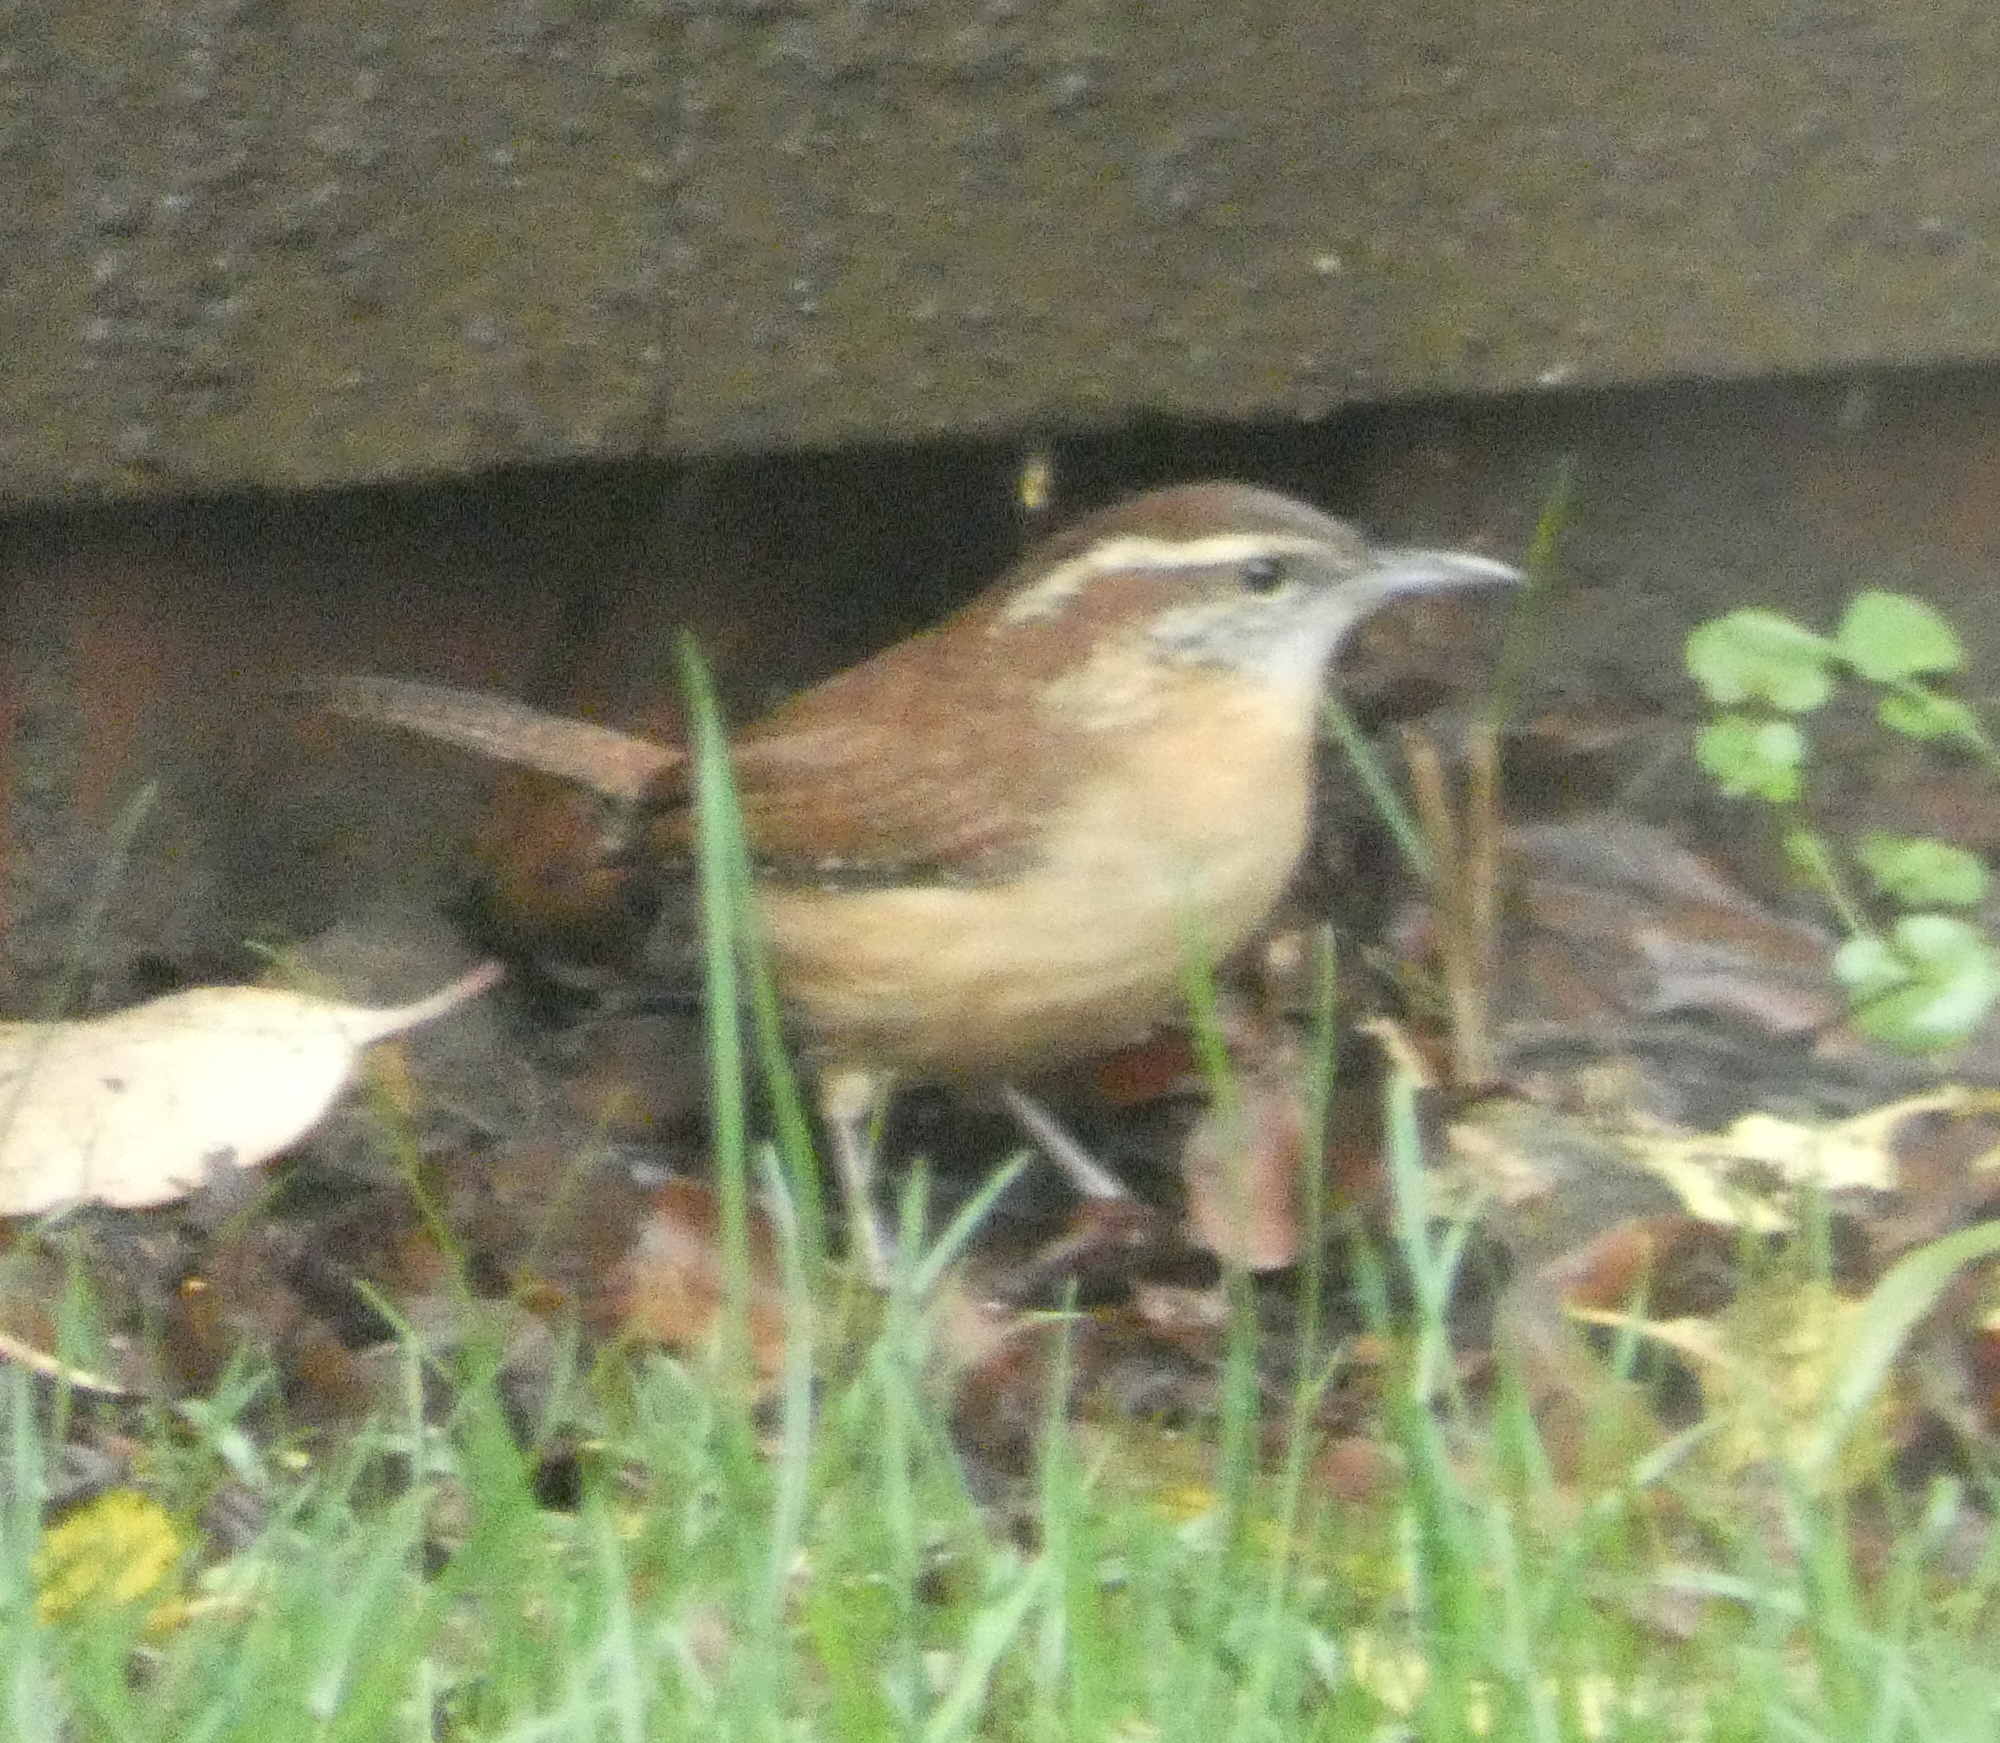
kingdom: Animalia
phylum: Chordata
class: Aves
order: Passeriformes
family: Troglodytidae
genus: Thryothorus
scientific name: Thryothorus ludovicianus
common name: Carolina wren
